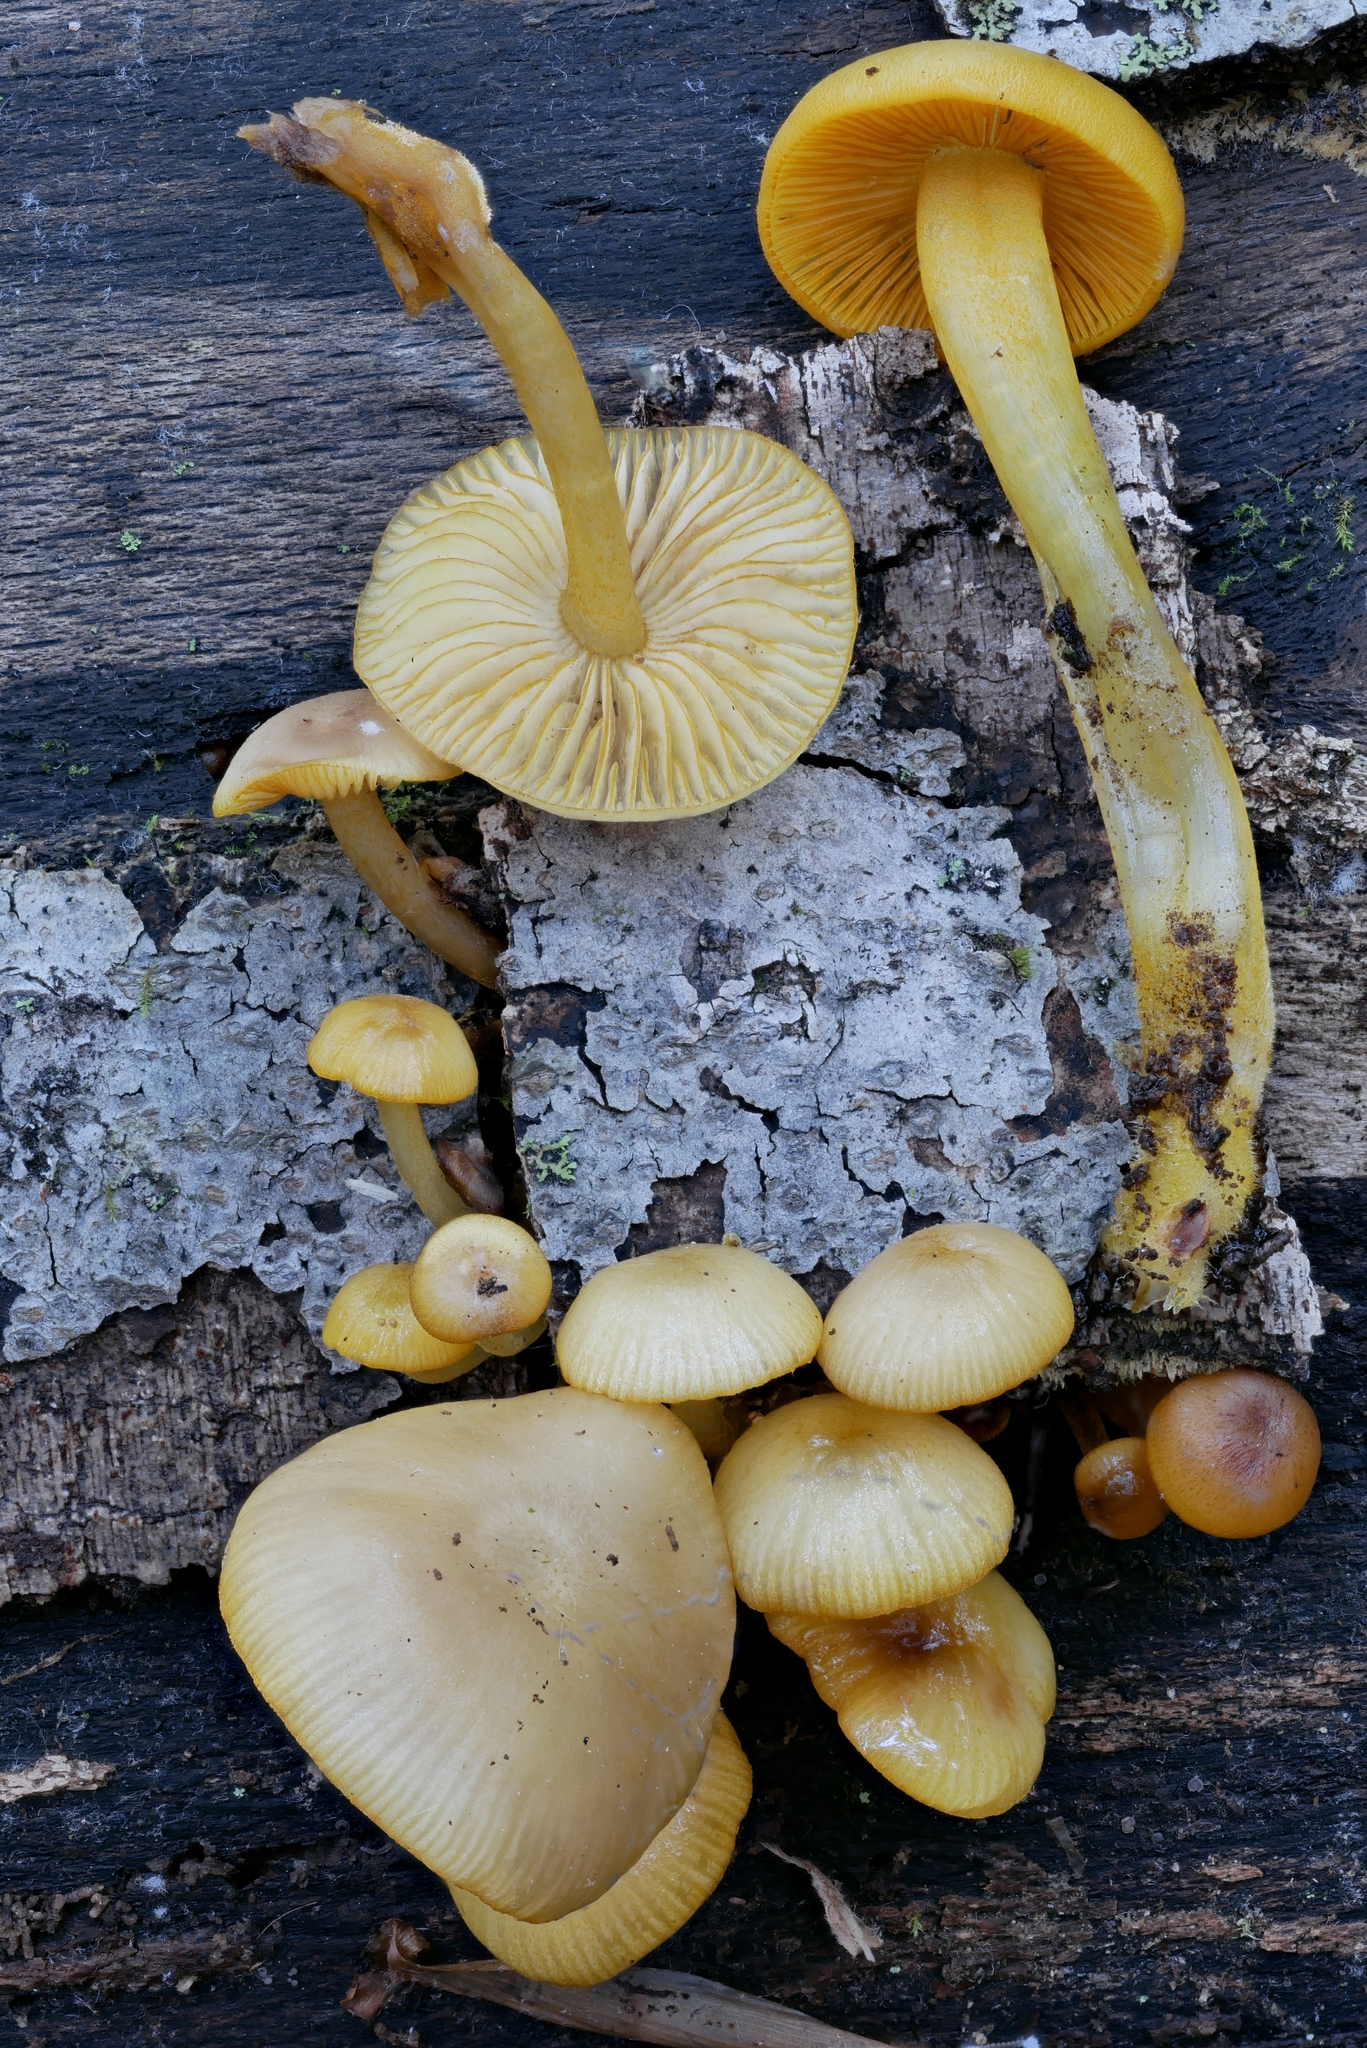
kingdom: Fungi
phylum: Basidiomycota
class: Agaricomycetes
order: Agaricales
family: Mycenaceae
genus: Mycena
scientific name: Mycena leaiana
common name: Orange mycena
